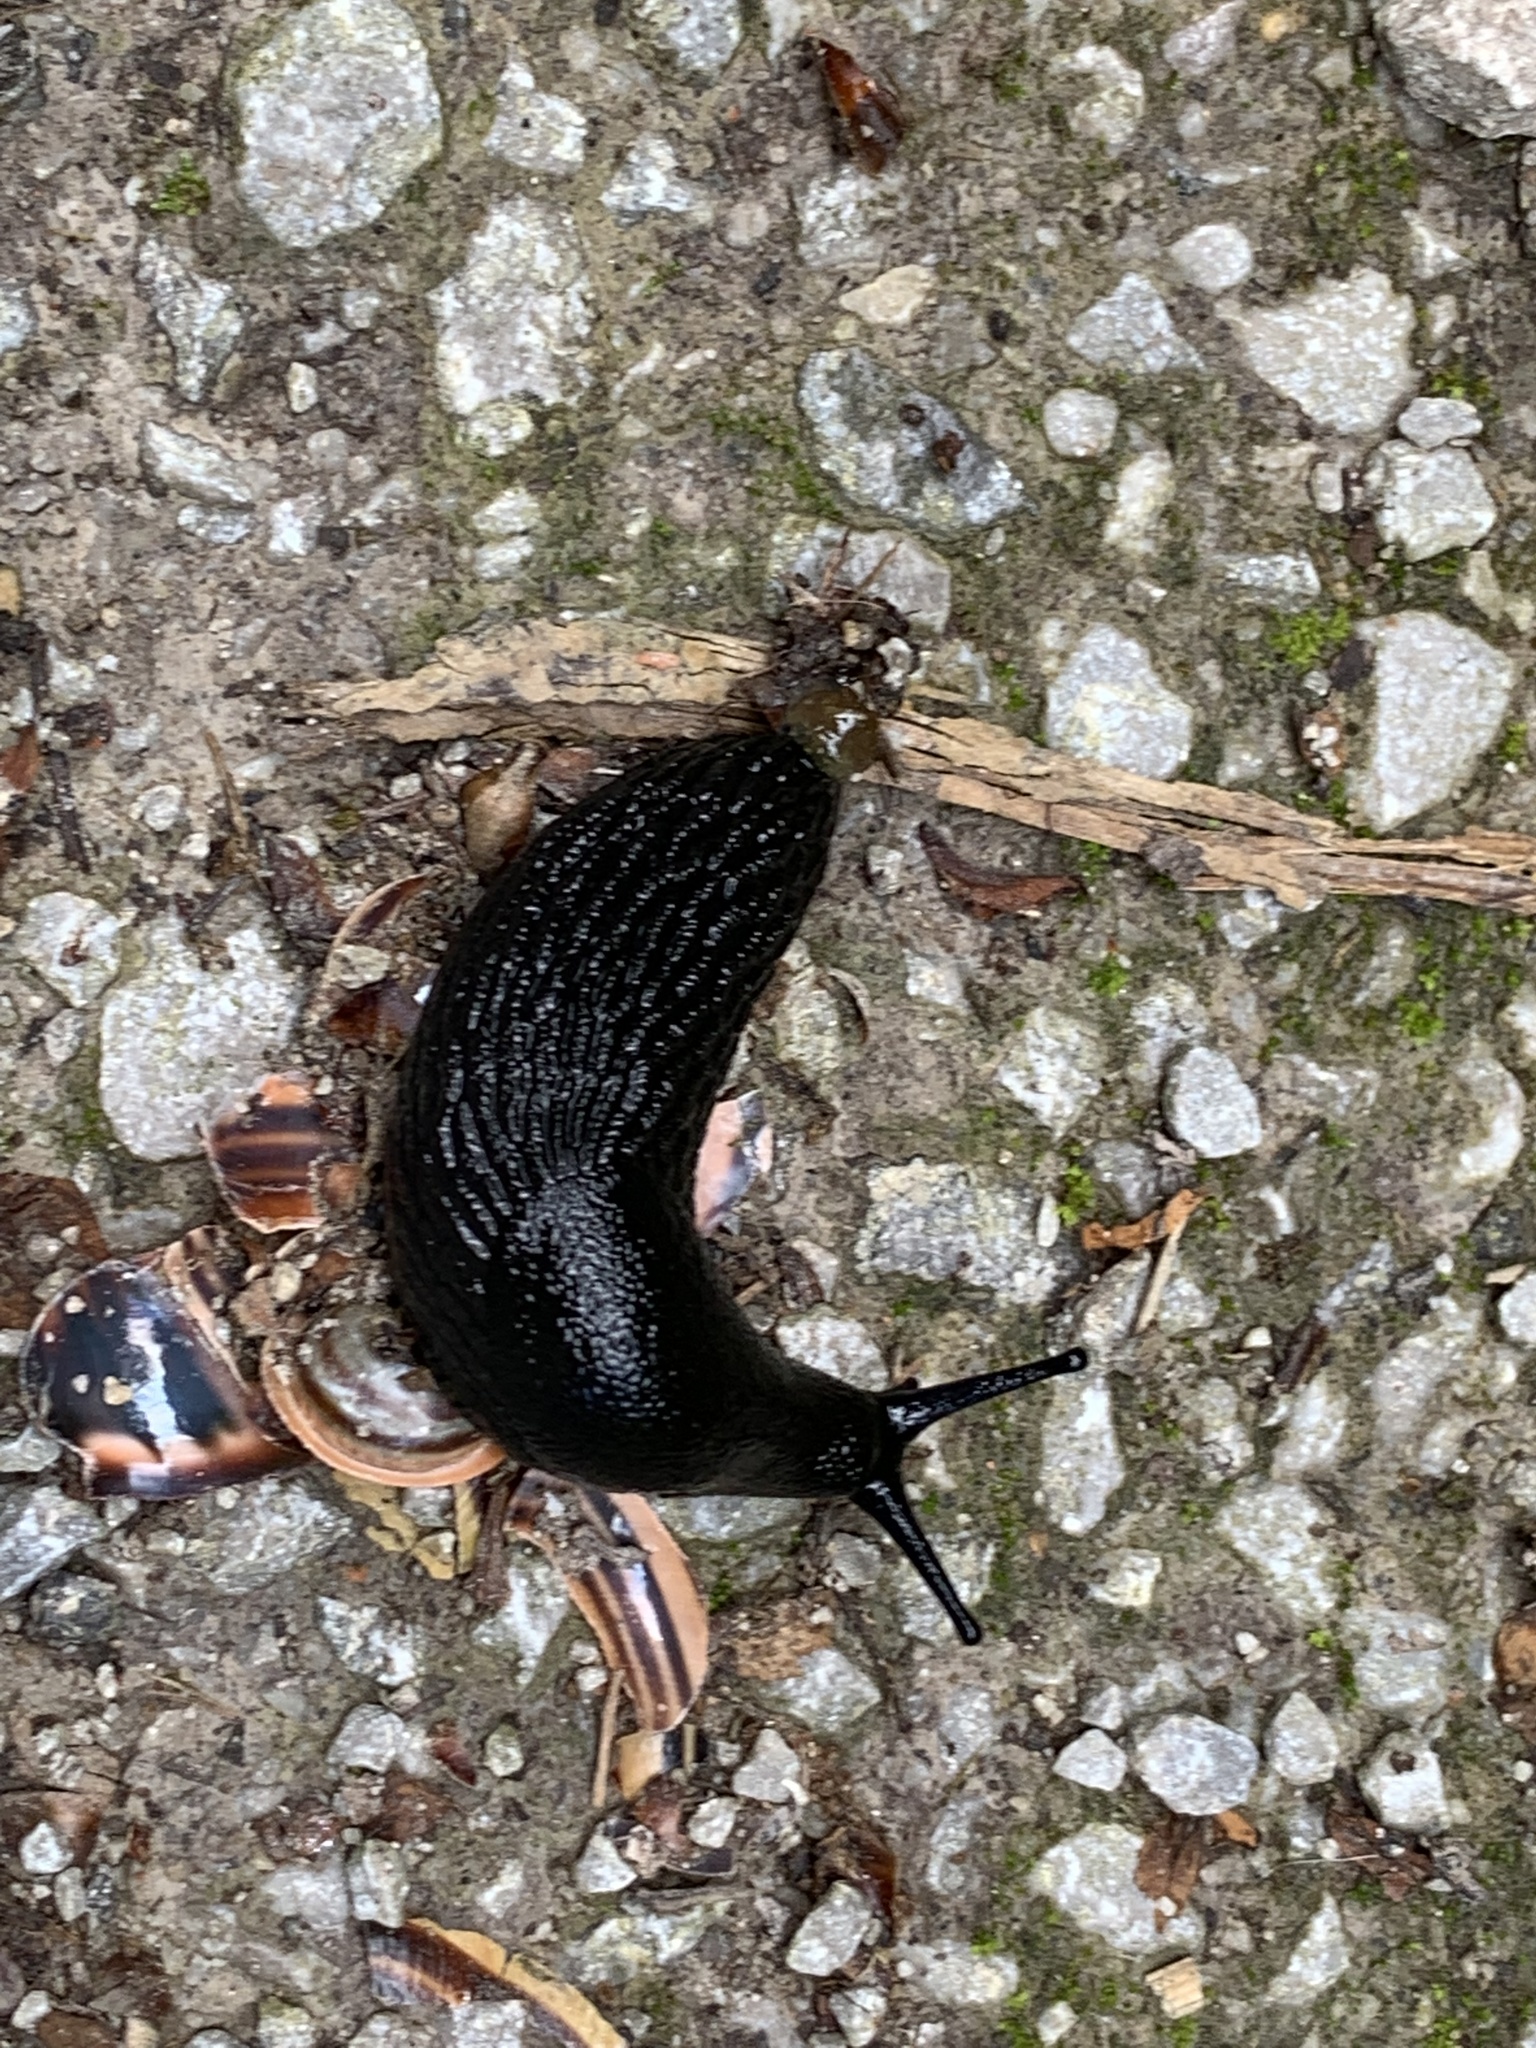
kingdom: Animalia
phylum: Mollusca
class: Gastropoda
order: Stylommatophora
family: Arionidae
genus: Arion
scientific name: Arion ater
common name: Black arion
